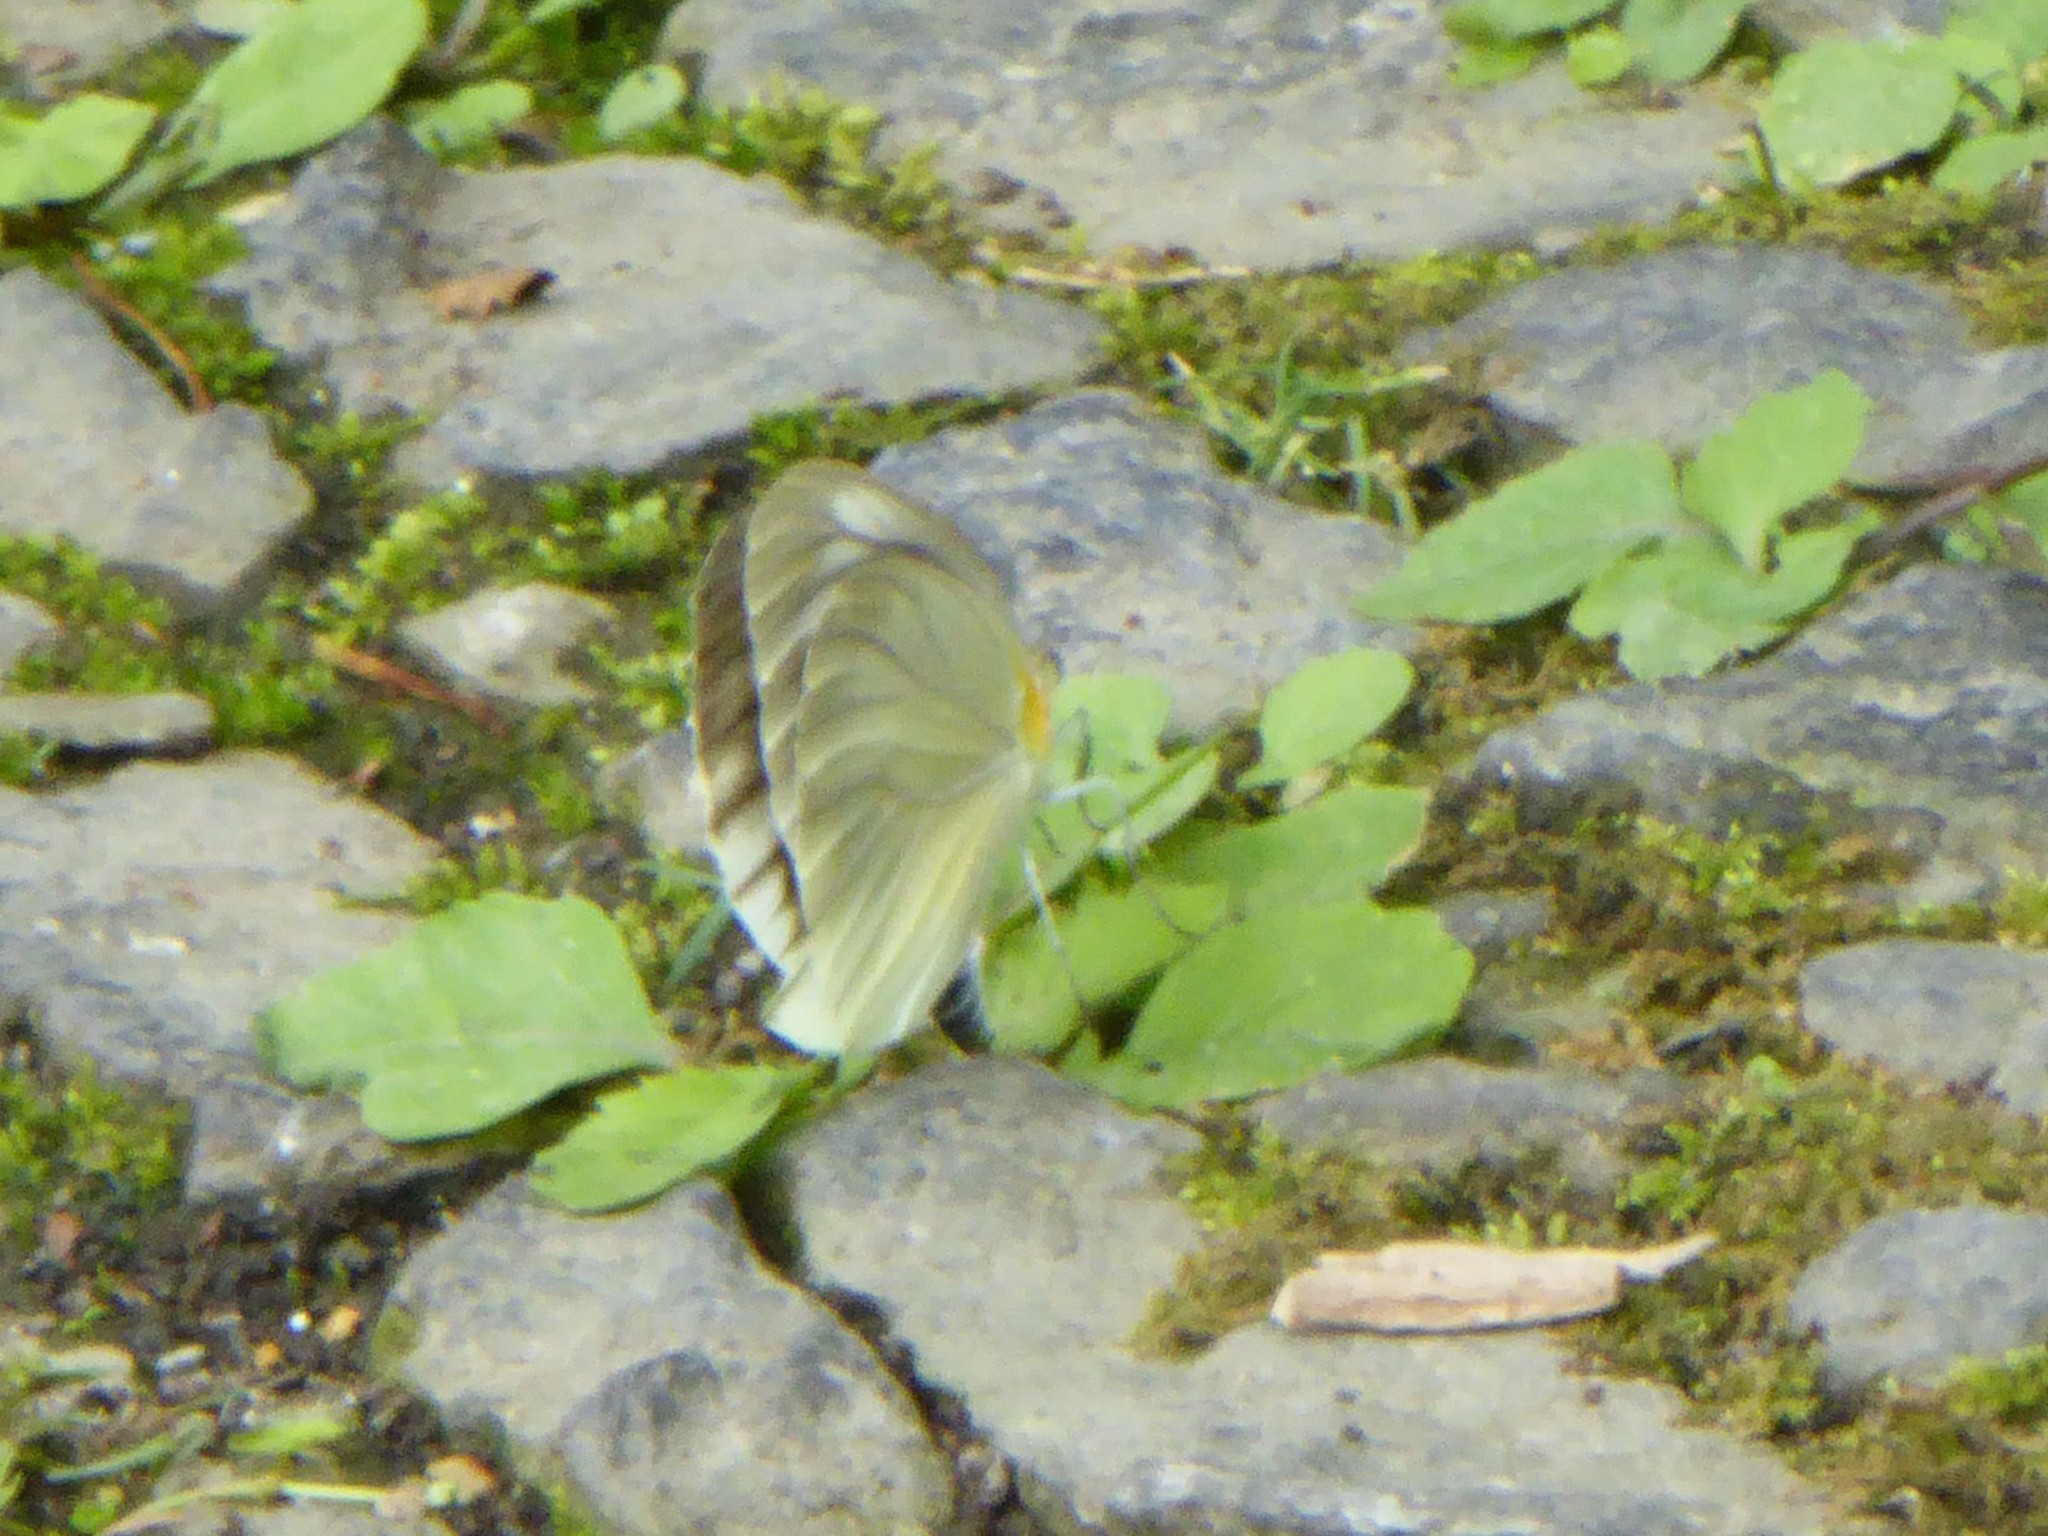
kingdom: Animalia
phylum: Arthropoda
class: Insecta
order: Lepidoptera
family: Pieridae
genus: Pieris
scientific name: Pieris melete
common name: Asian green-veined white
